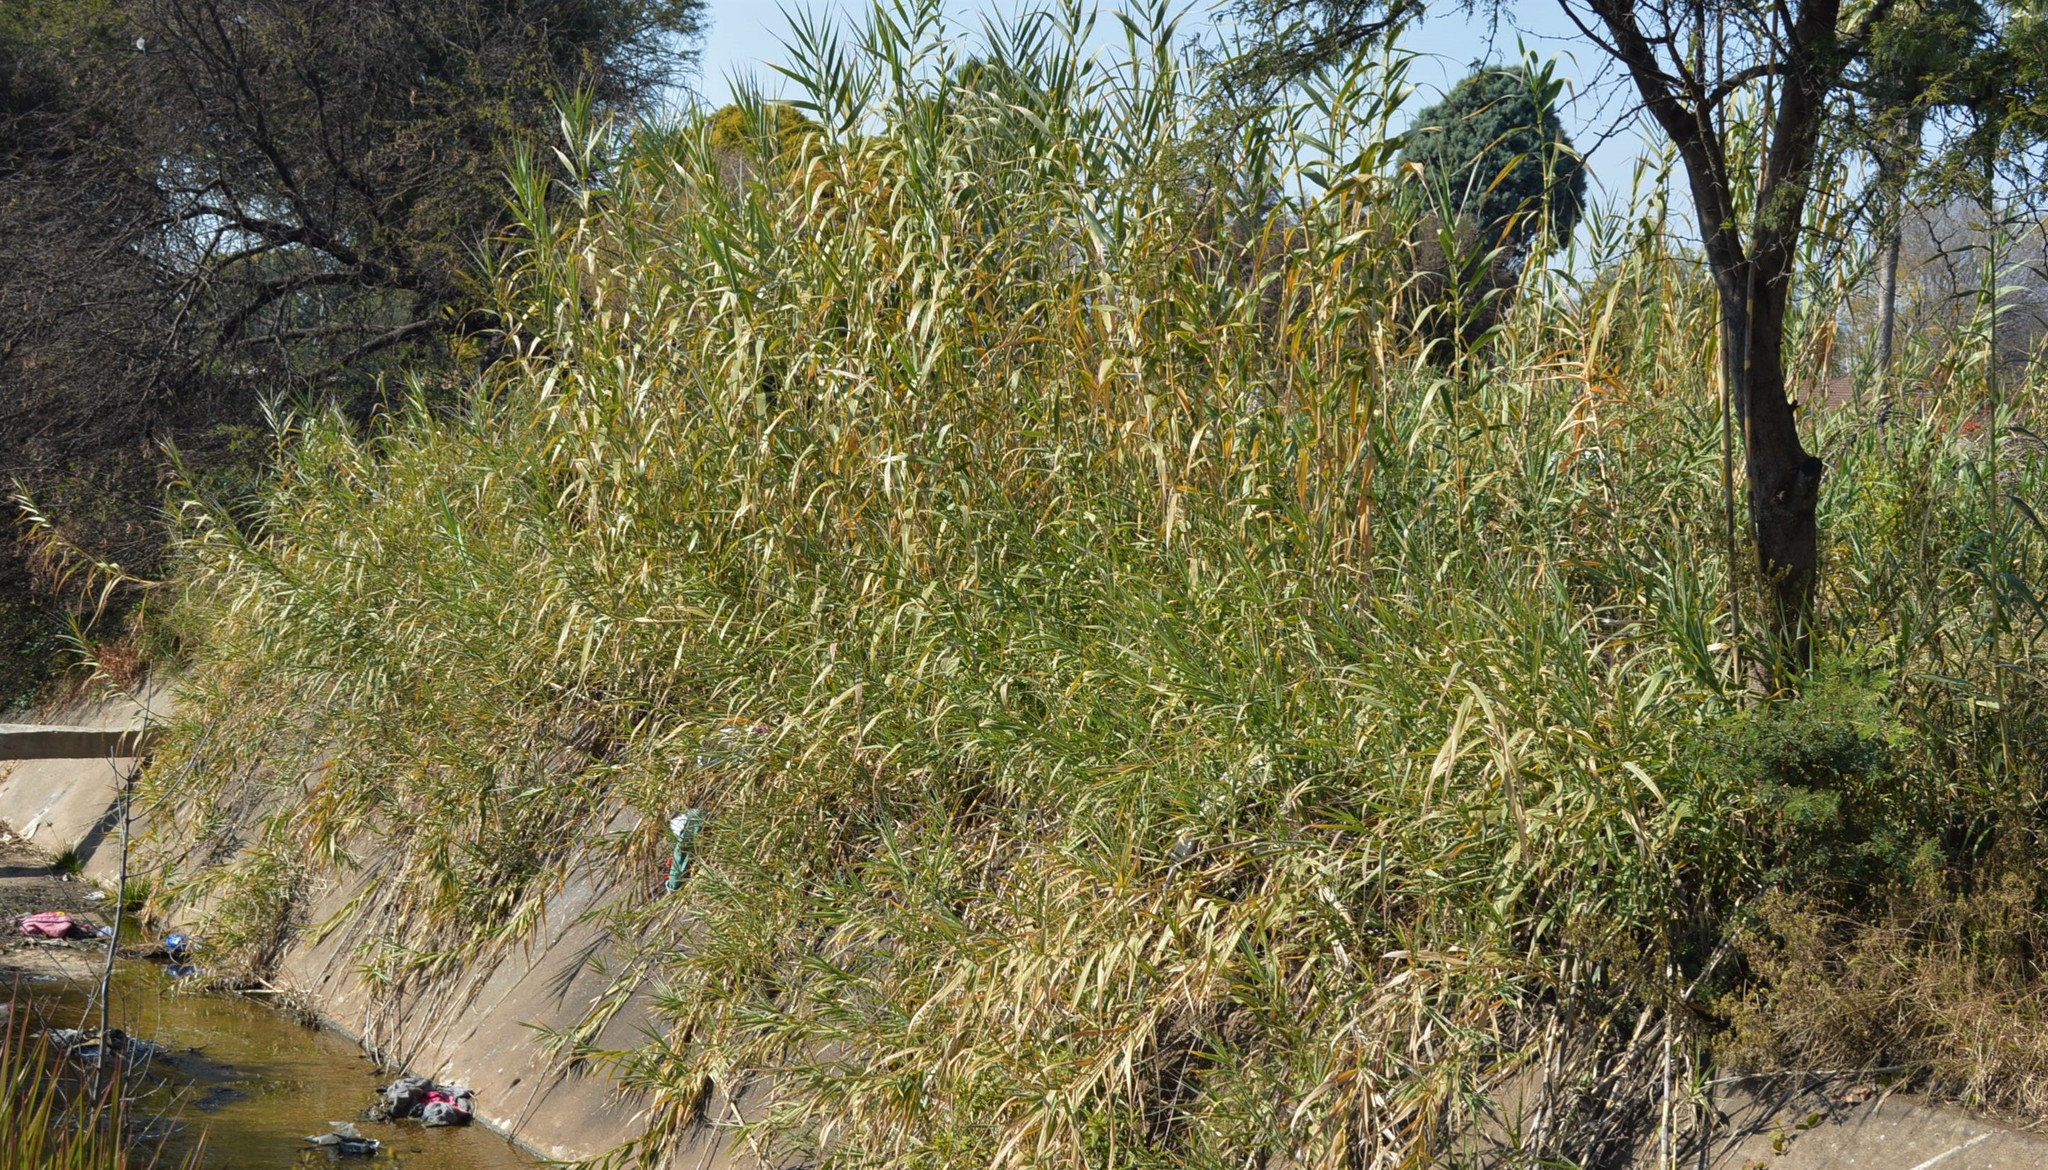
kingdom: Plantae
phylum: Tracheophyta
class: Liliopsida
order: Poales
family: Poaceae
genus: Arundo
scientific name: Arundo donax
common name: Giant reed
